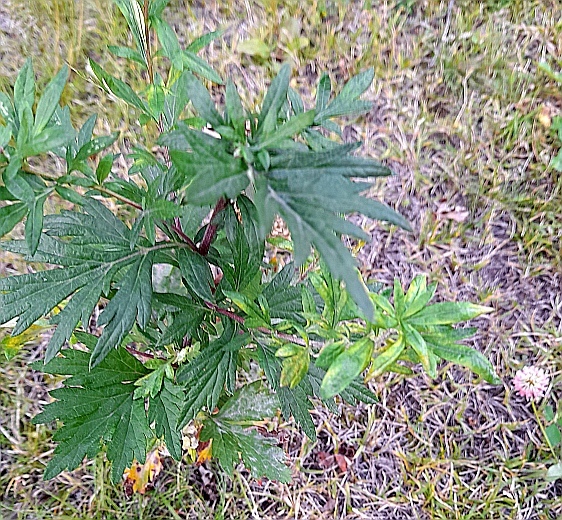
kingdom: Plantae
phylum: Tracheophyta
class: Magnoliopsida
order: Asterales
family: Asteraceae
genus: Artemisia
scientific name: Artemisia vulgaris
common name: Mugwort
